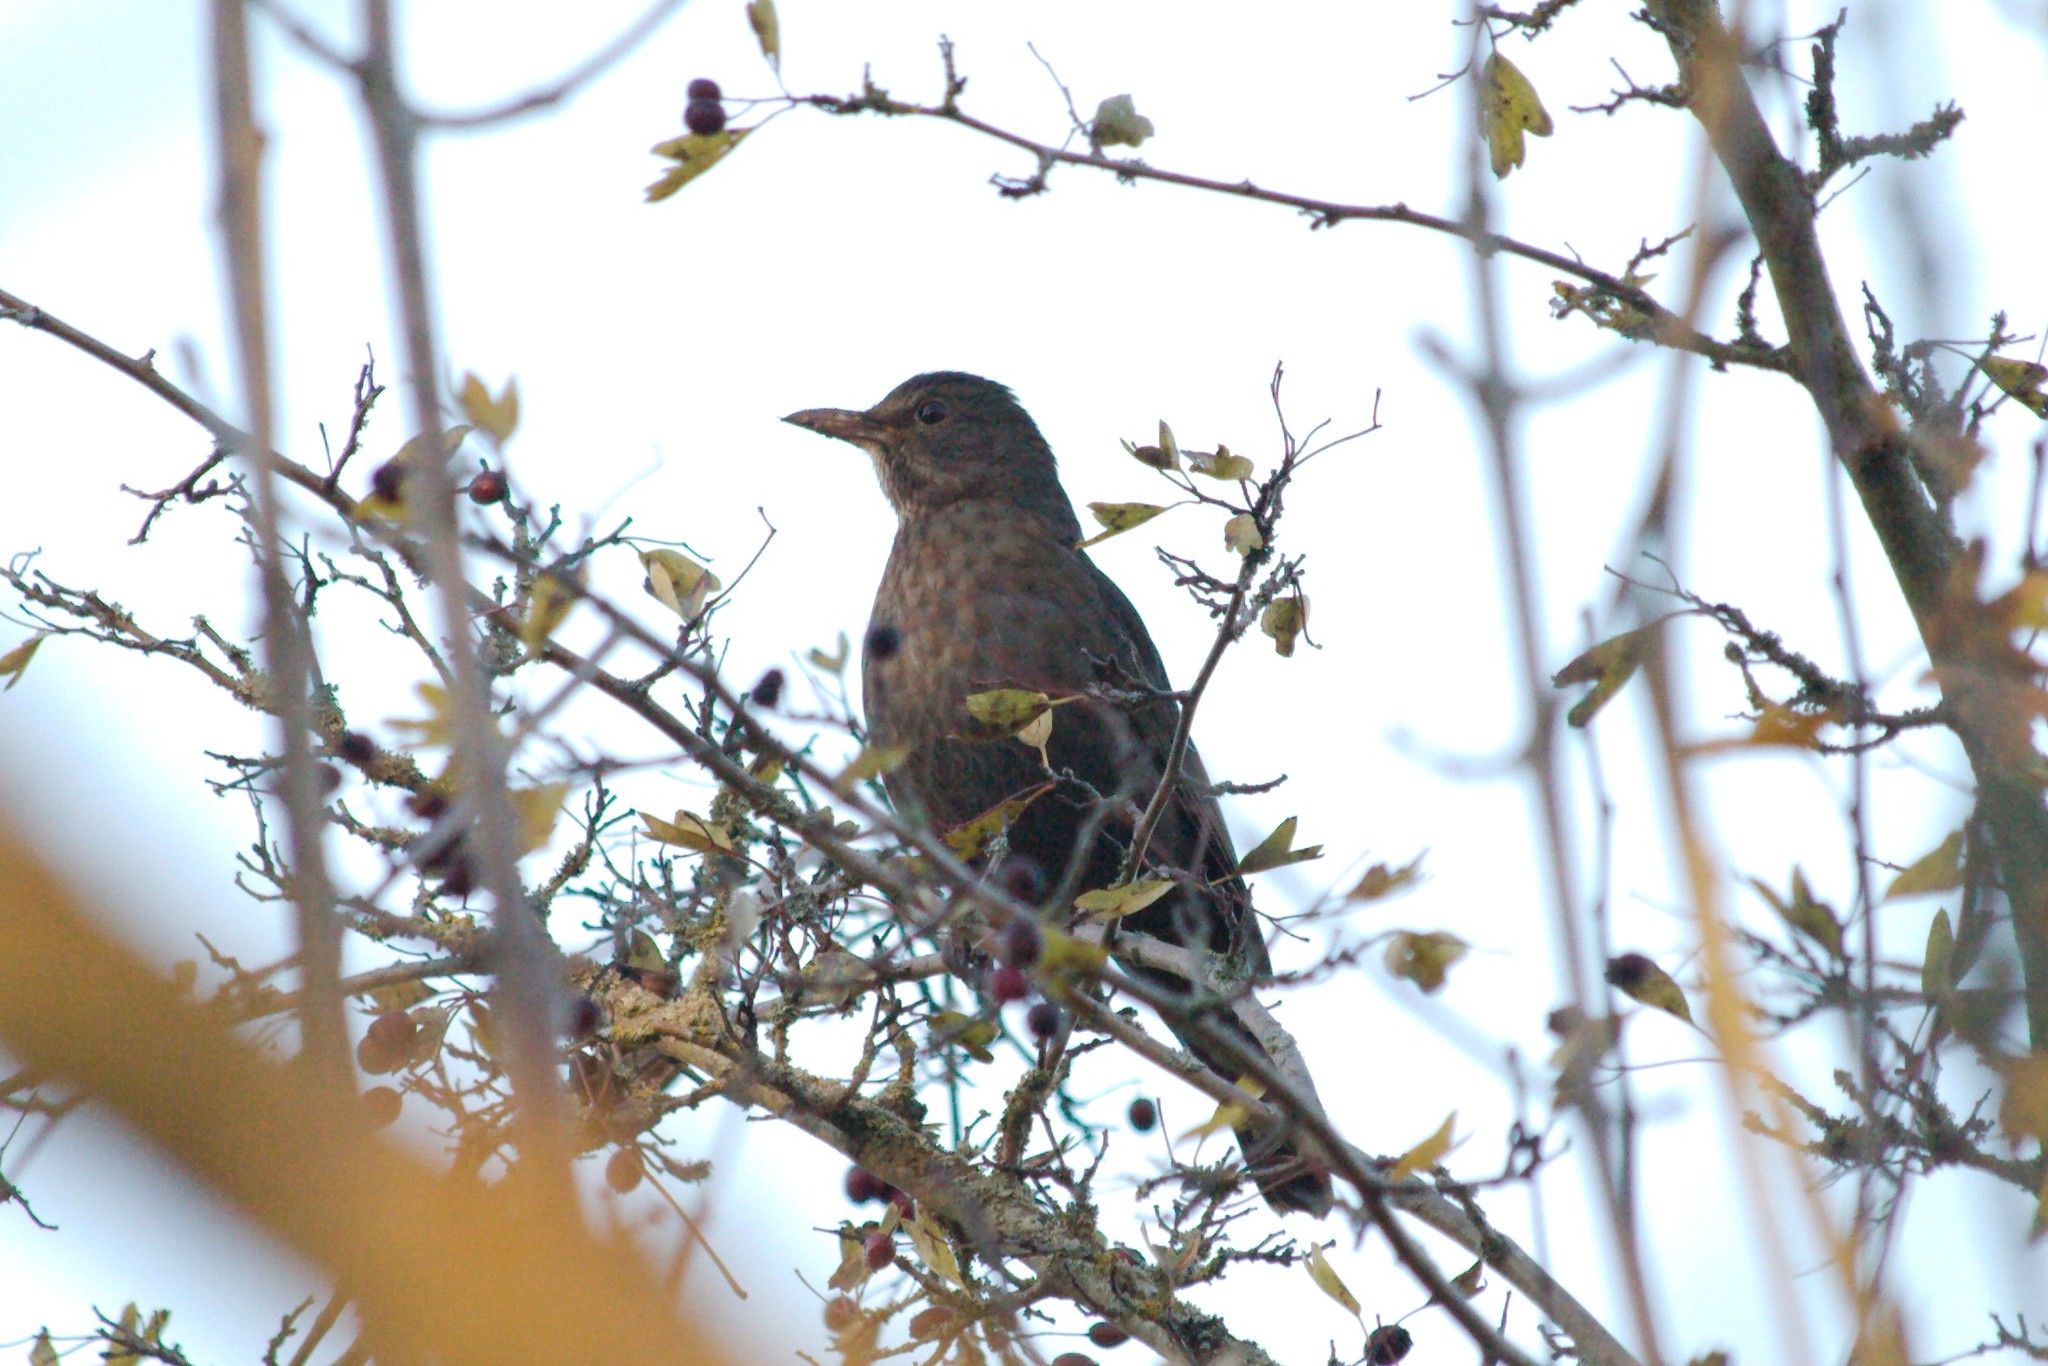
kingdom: Animalia
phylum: Chordata
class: Aves
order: Passeriformes
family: Turdidae
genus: Turdus
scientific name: Turdus merula
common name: Common blackbird
